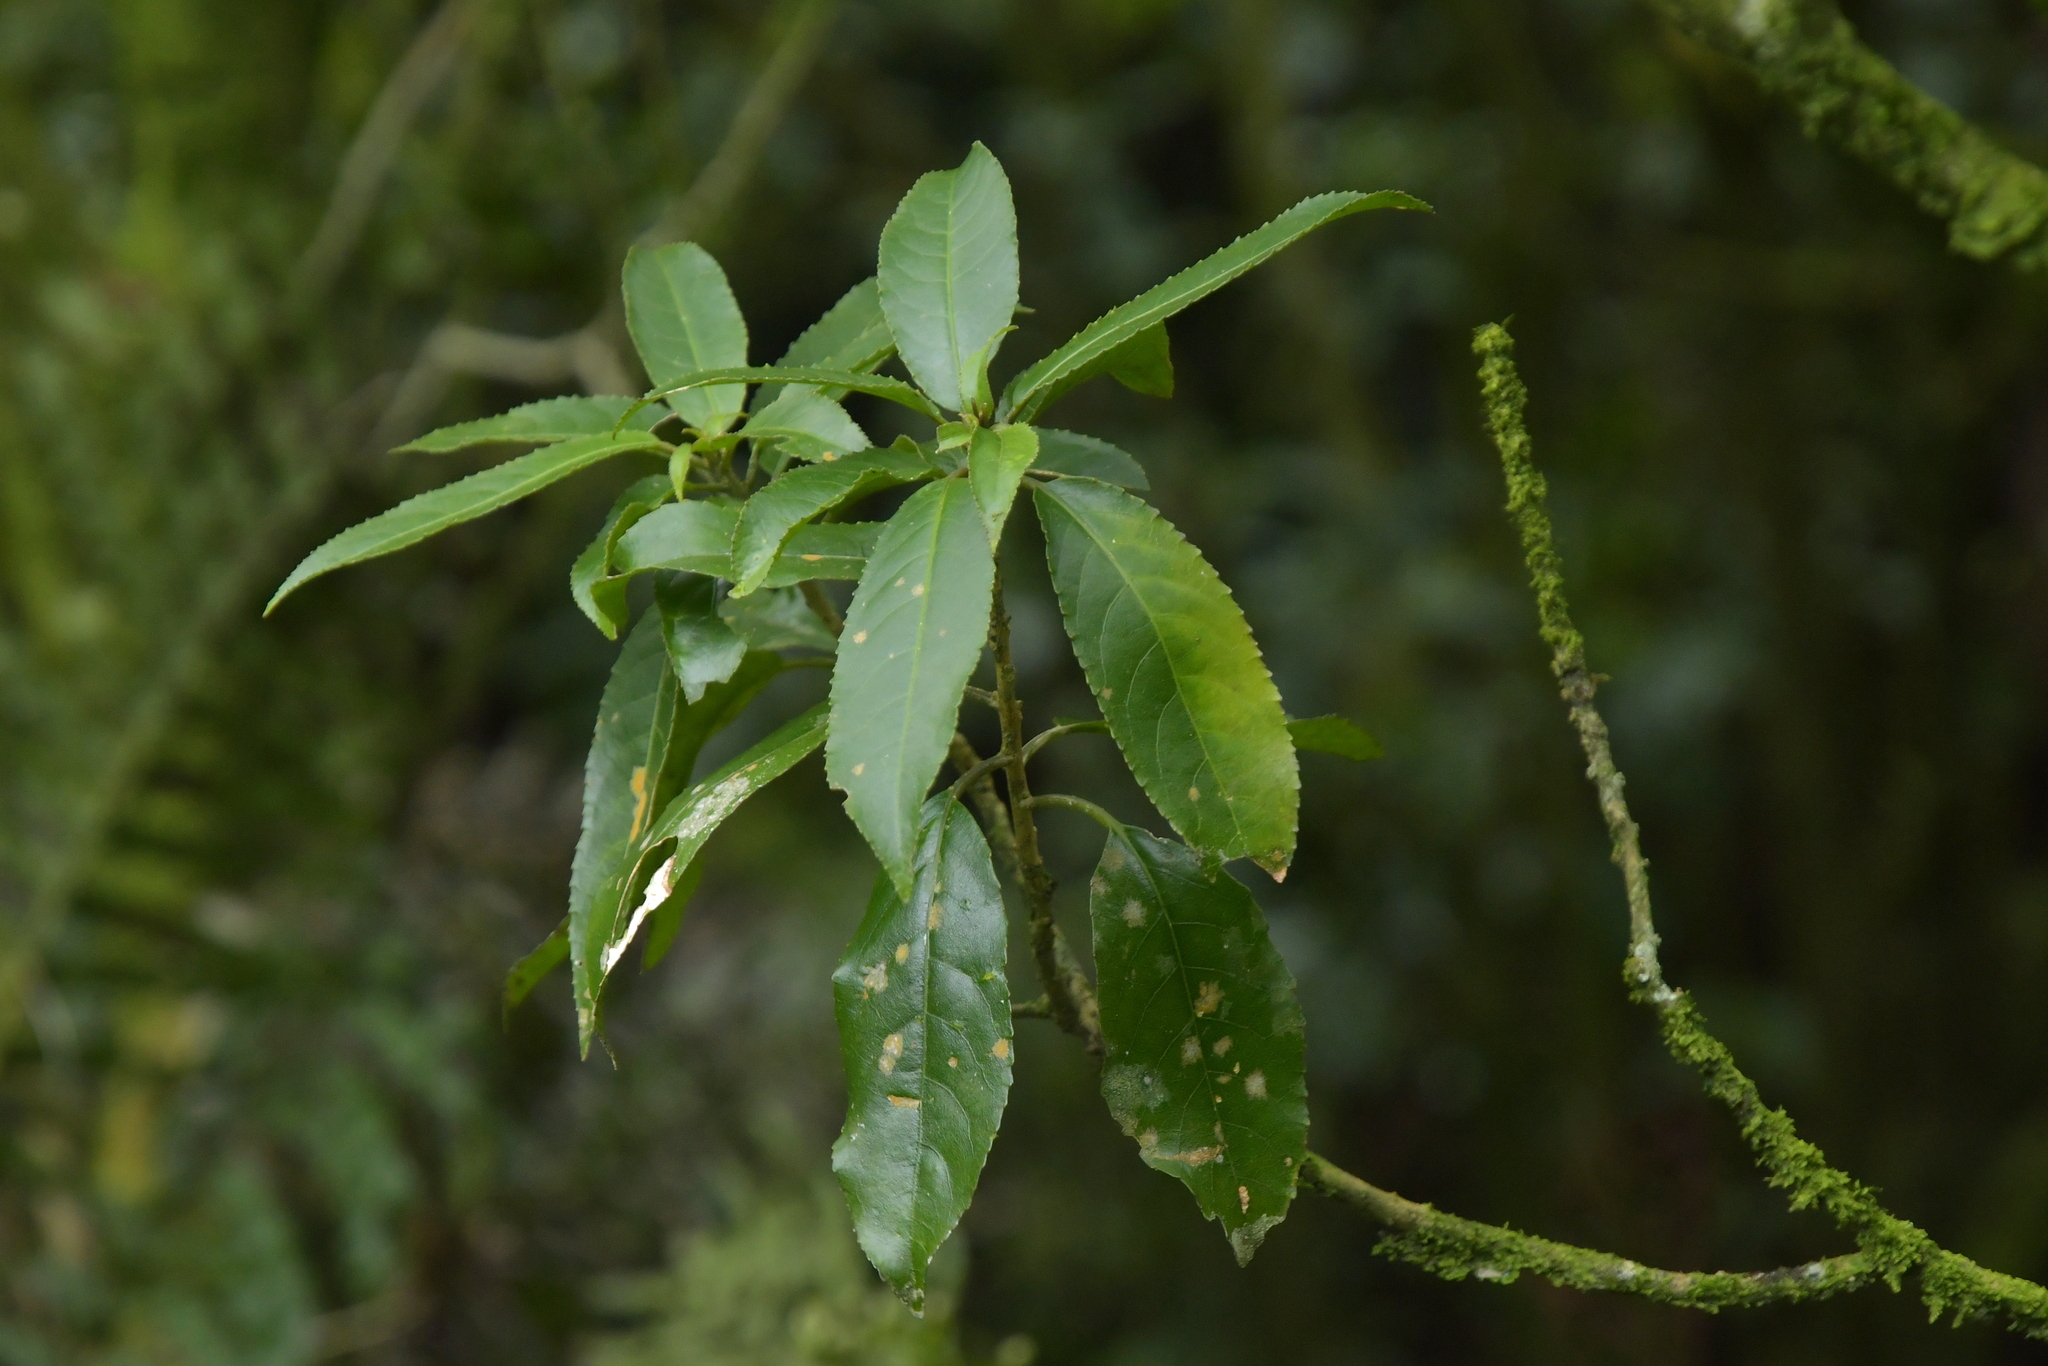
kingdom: Plantae
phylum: Tracheophyta
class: Magnoliopsida
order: Malpighiales
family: Violaceae
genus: Melicytus
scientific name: Melicytus ramiflorus
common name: Mahoe
